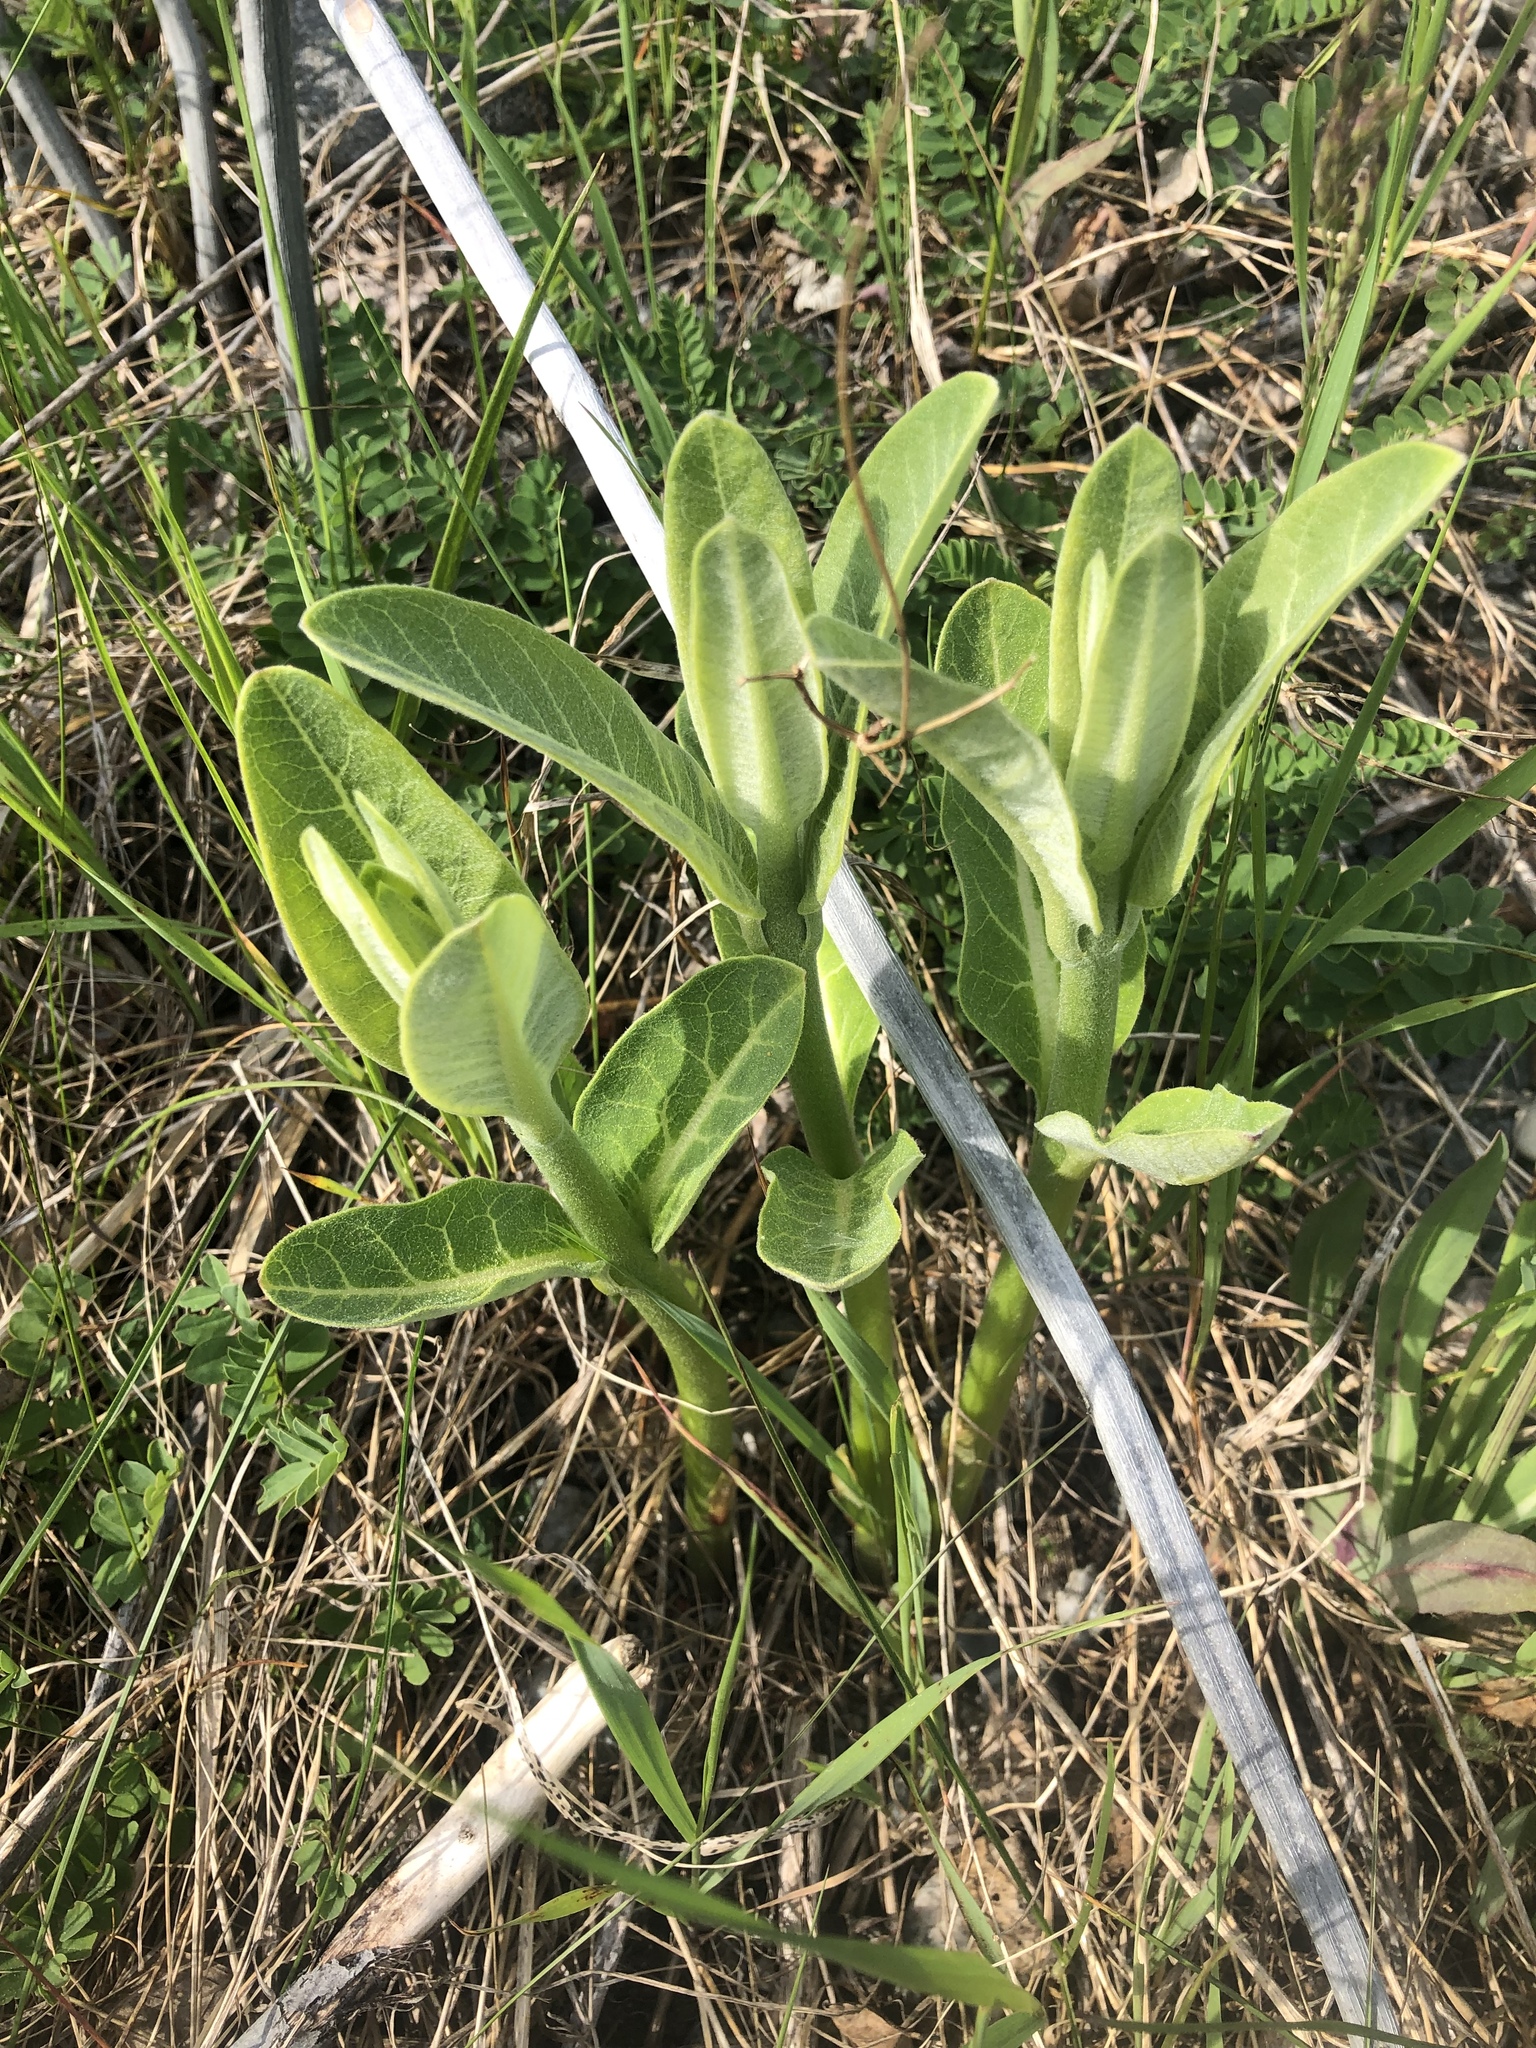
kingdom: Plantae
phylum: Tracheophyta
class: Magnoliopsida
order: Gentianales
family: Apocynaceae
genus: Asclepias
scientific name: Asclepias syriaca
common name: Common milkweed
